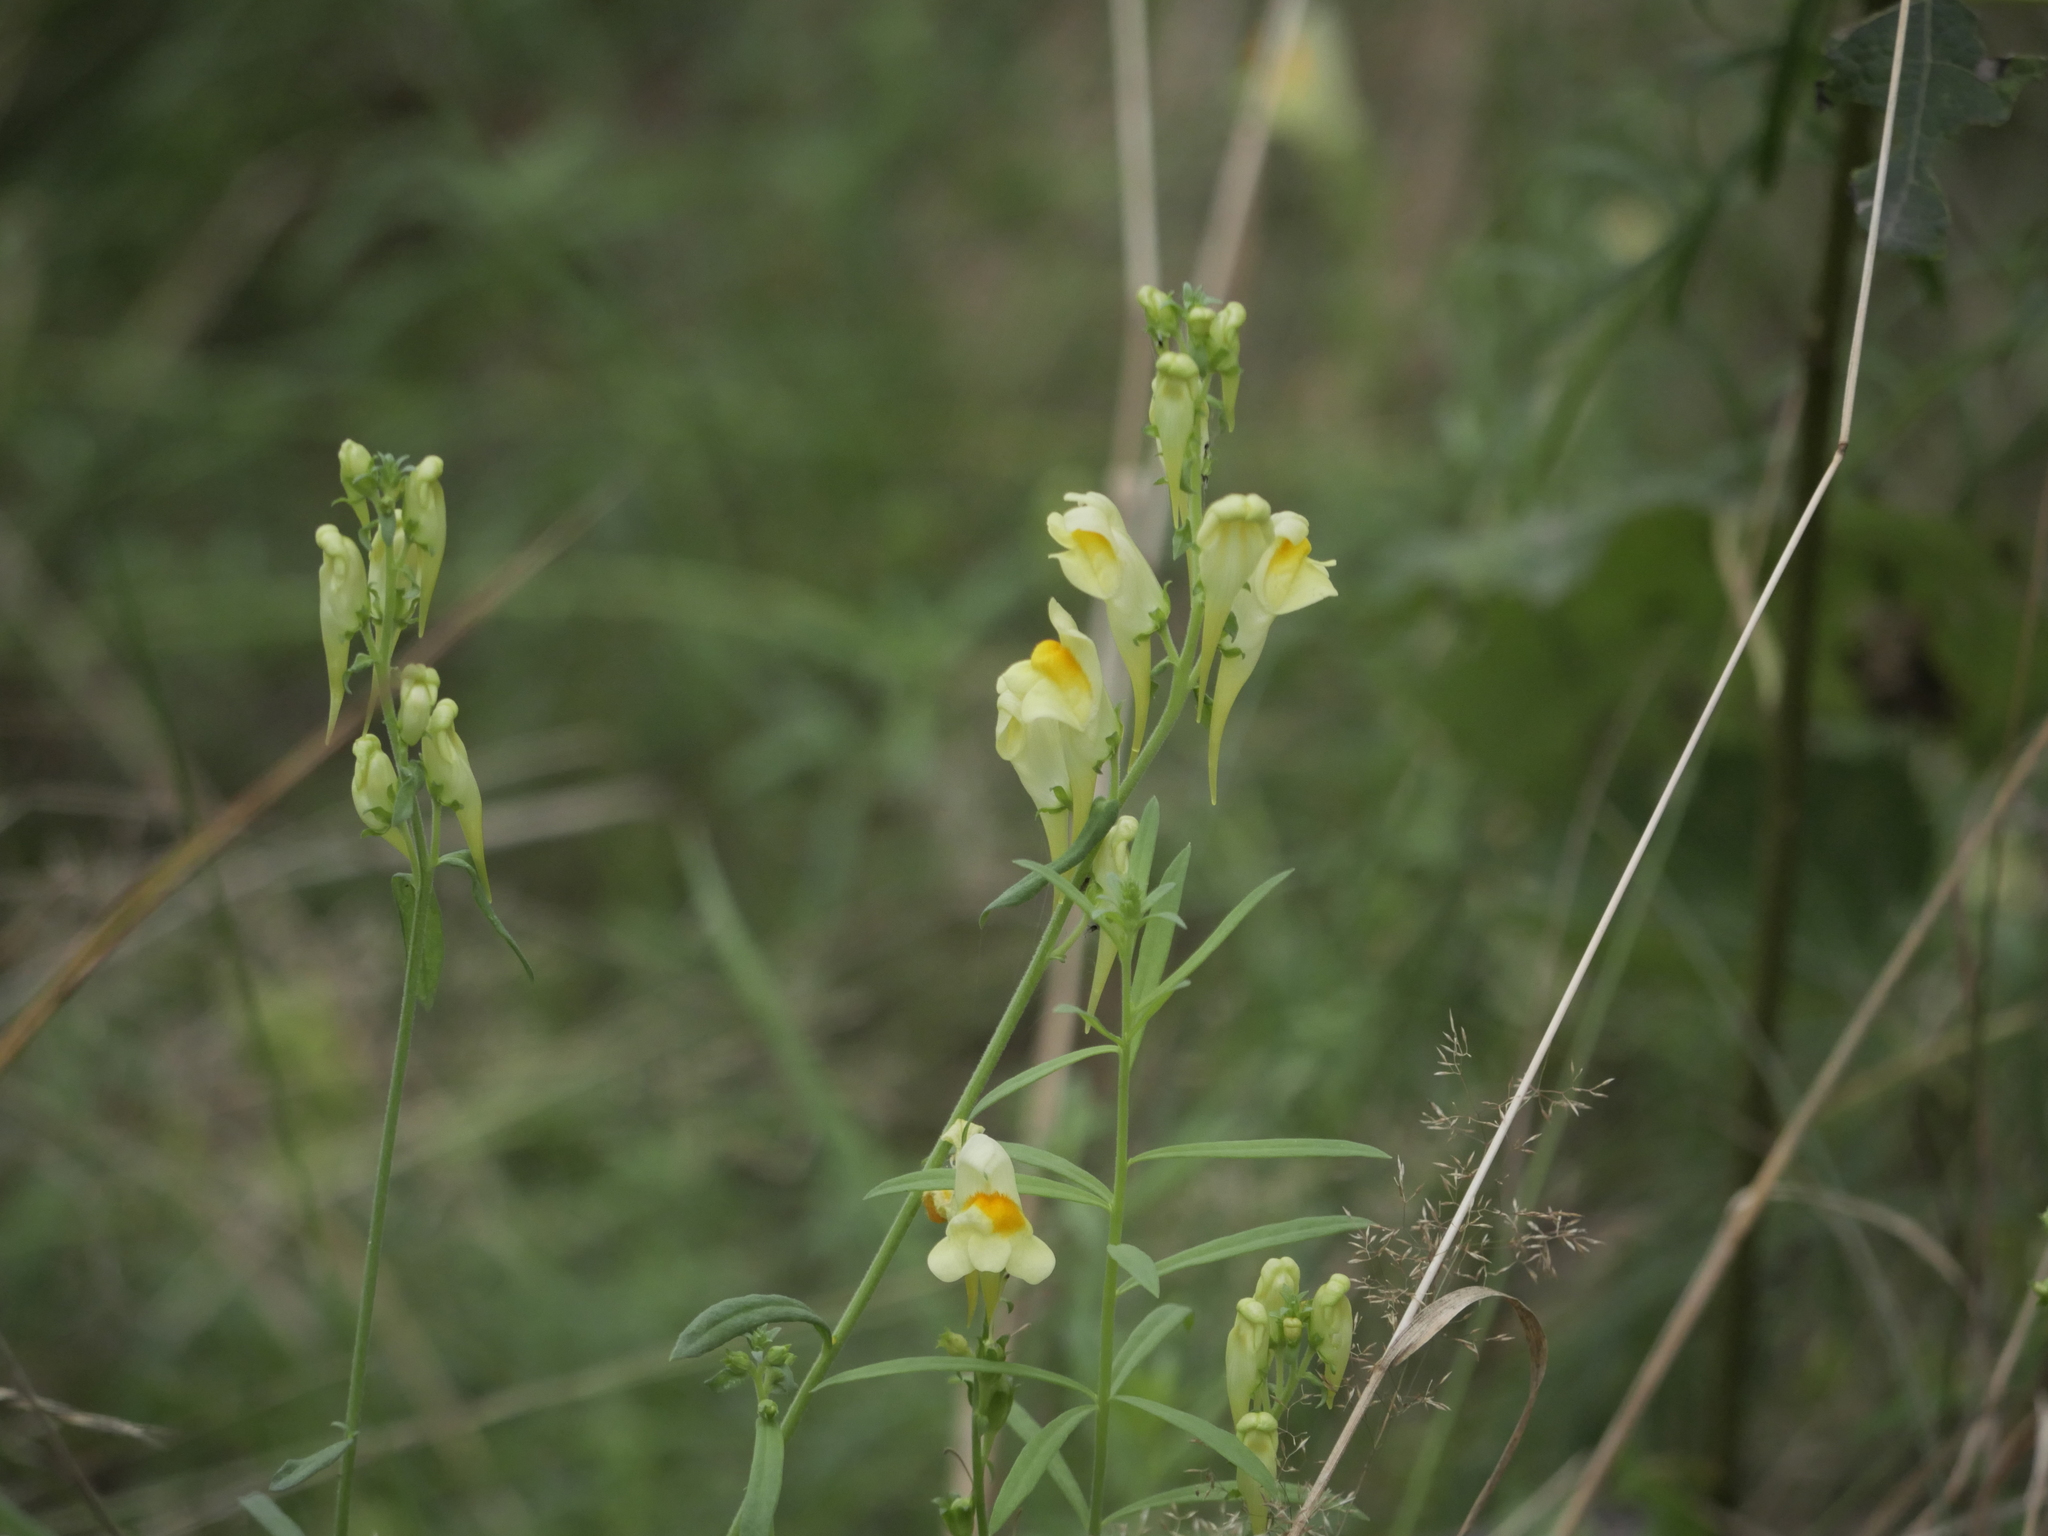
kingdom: Plantae
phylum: Tracheophyta
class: Magnoliopsida
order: Lamiales
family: Plantaginaceae
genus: Linaria
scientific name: Linaria vulgaris
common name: Butter and eggs
